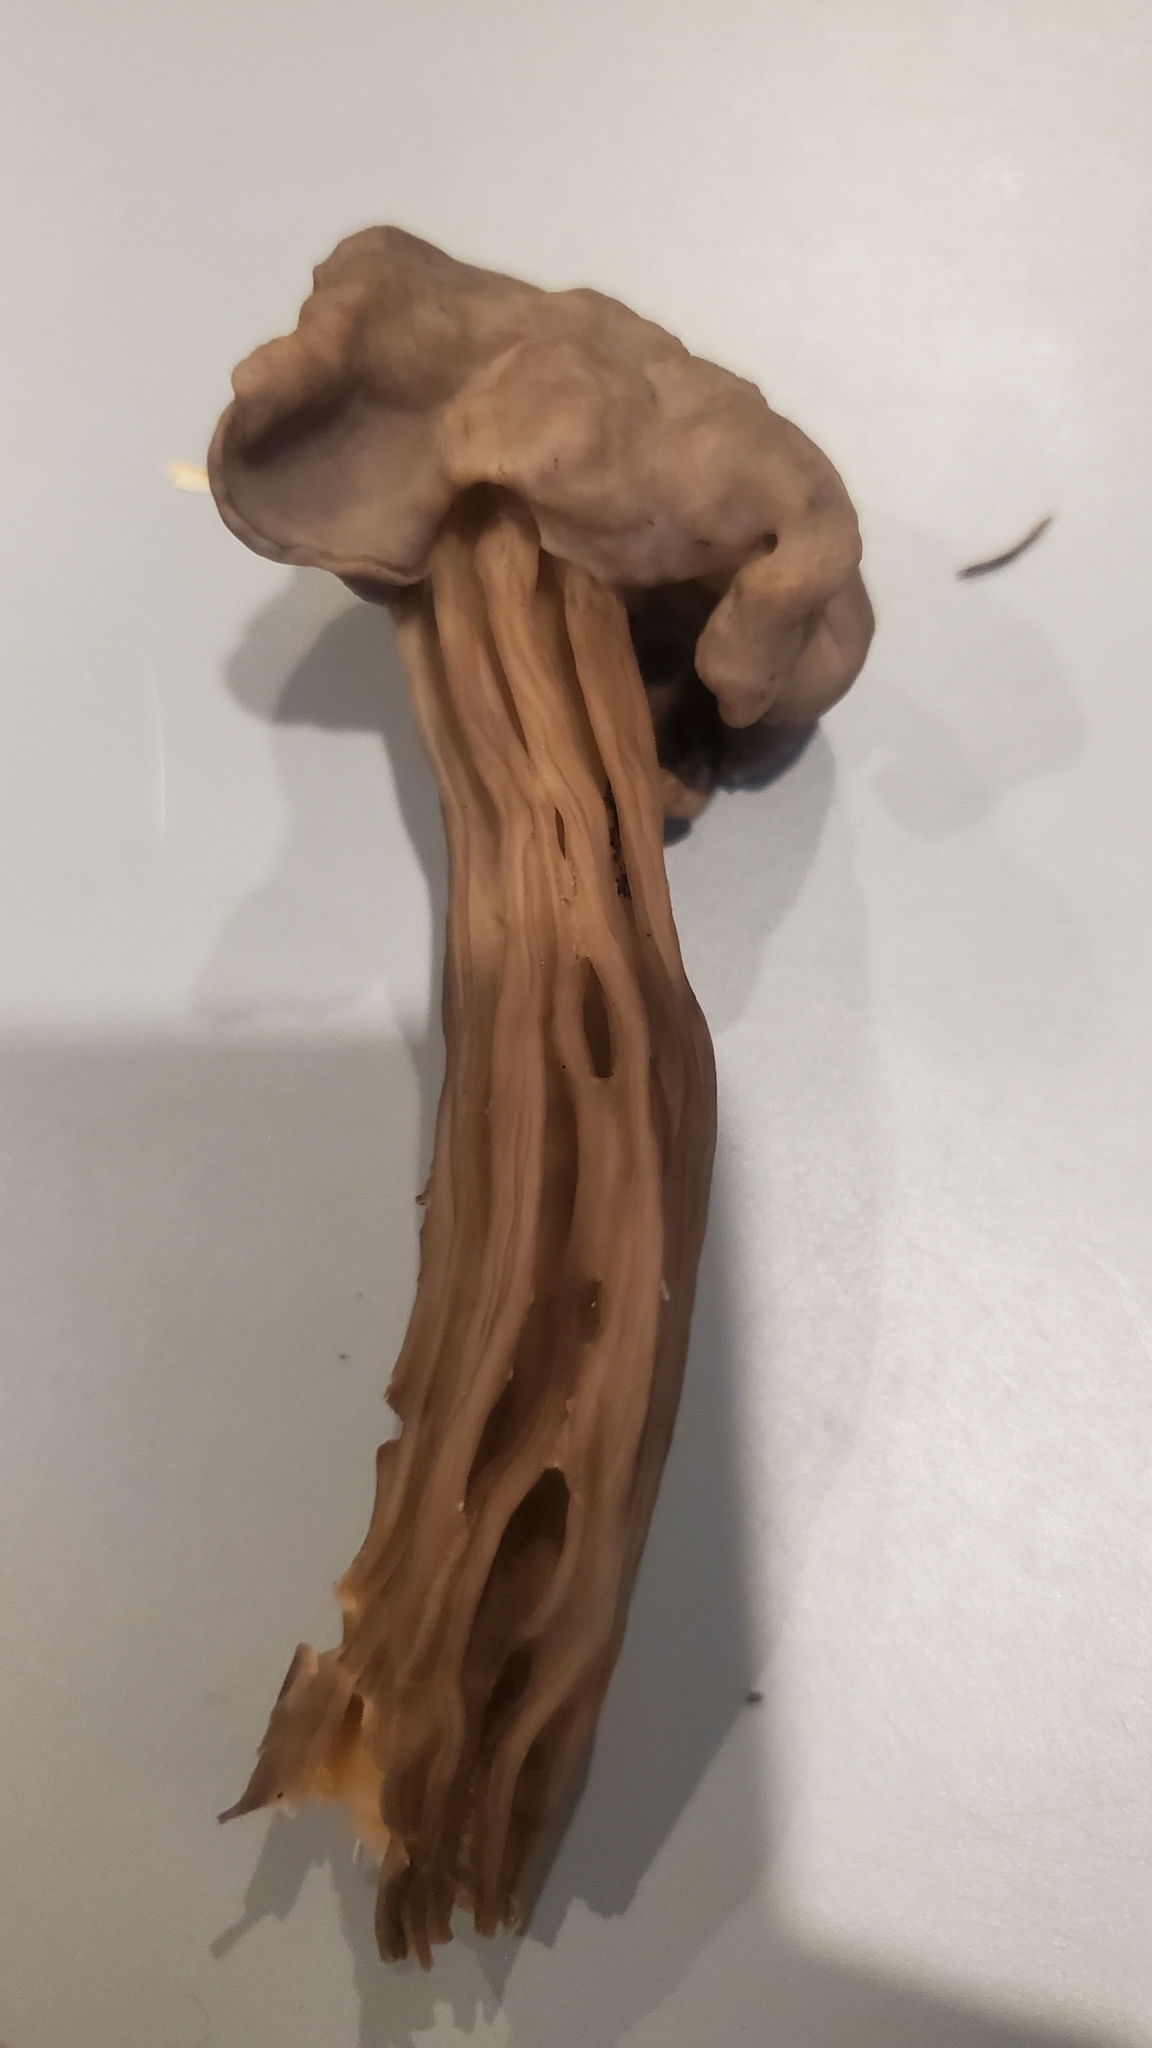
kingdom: Fungi
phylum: Ascomycota
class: Pezizomycetes
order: Pezizales
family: Helvellaceae
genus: Helvella
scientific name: Helvella vespertina
